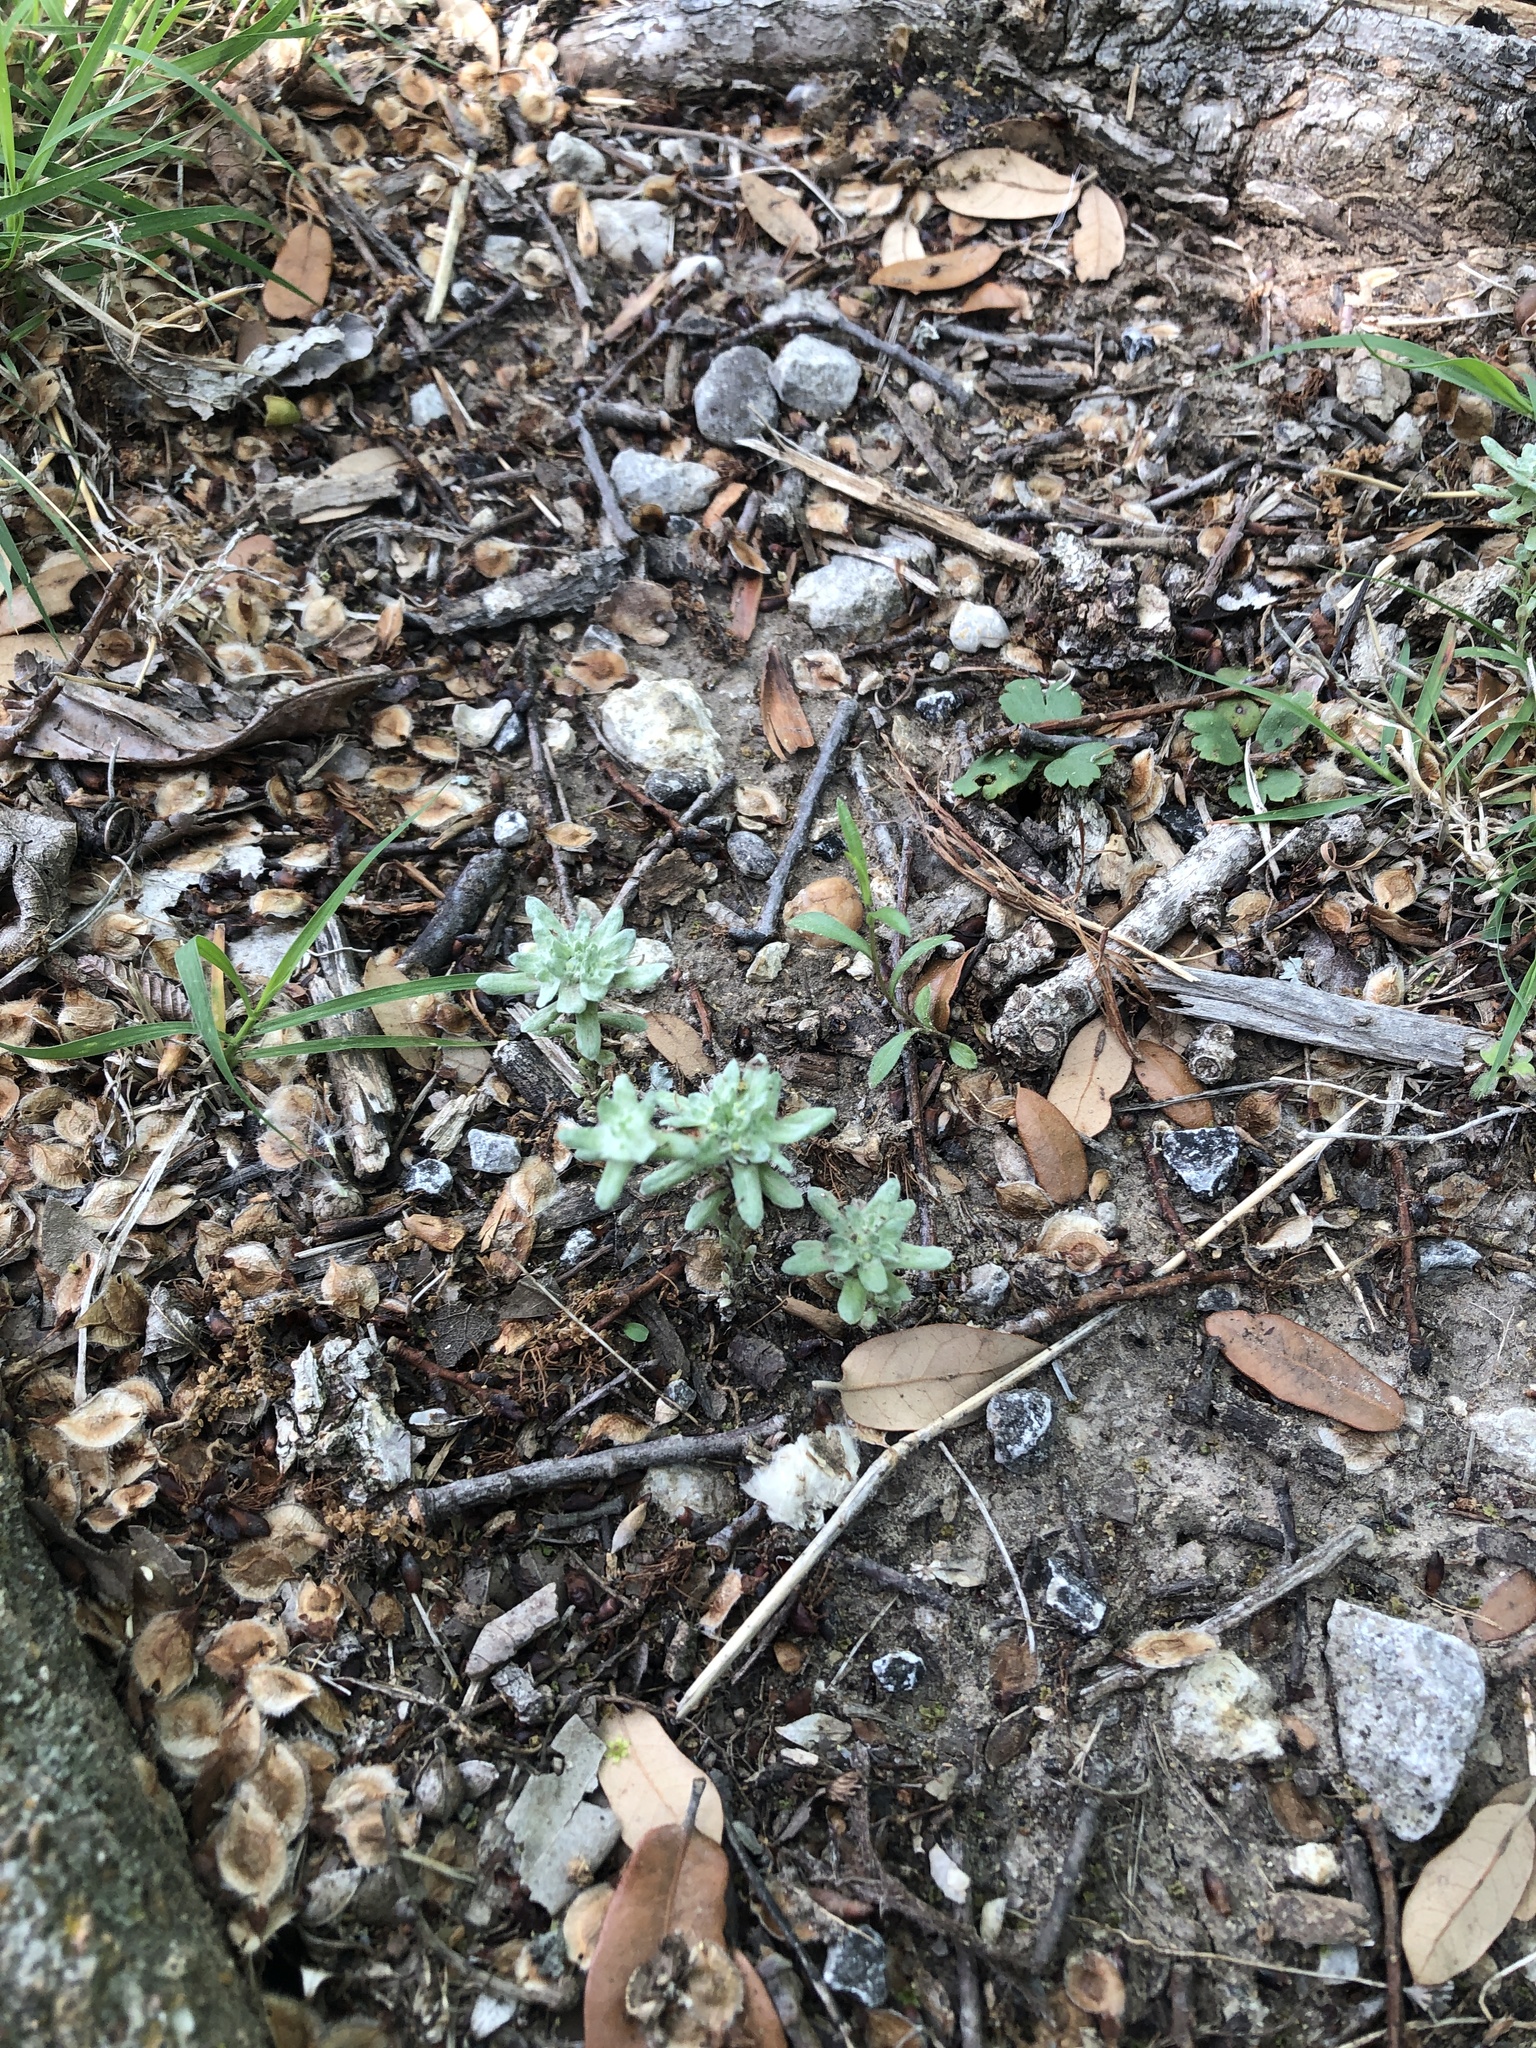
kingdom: Plantae
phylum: Tracheophyta
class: Magnoliopsida
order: Asterales
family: Asteraceae
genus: Diaperia
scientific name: Diaperia prolifera
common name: Big-head rabbit-tobacco
